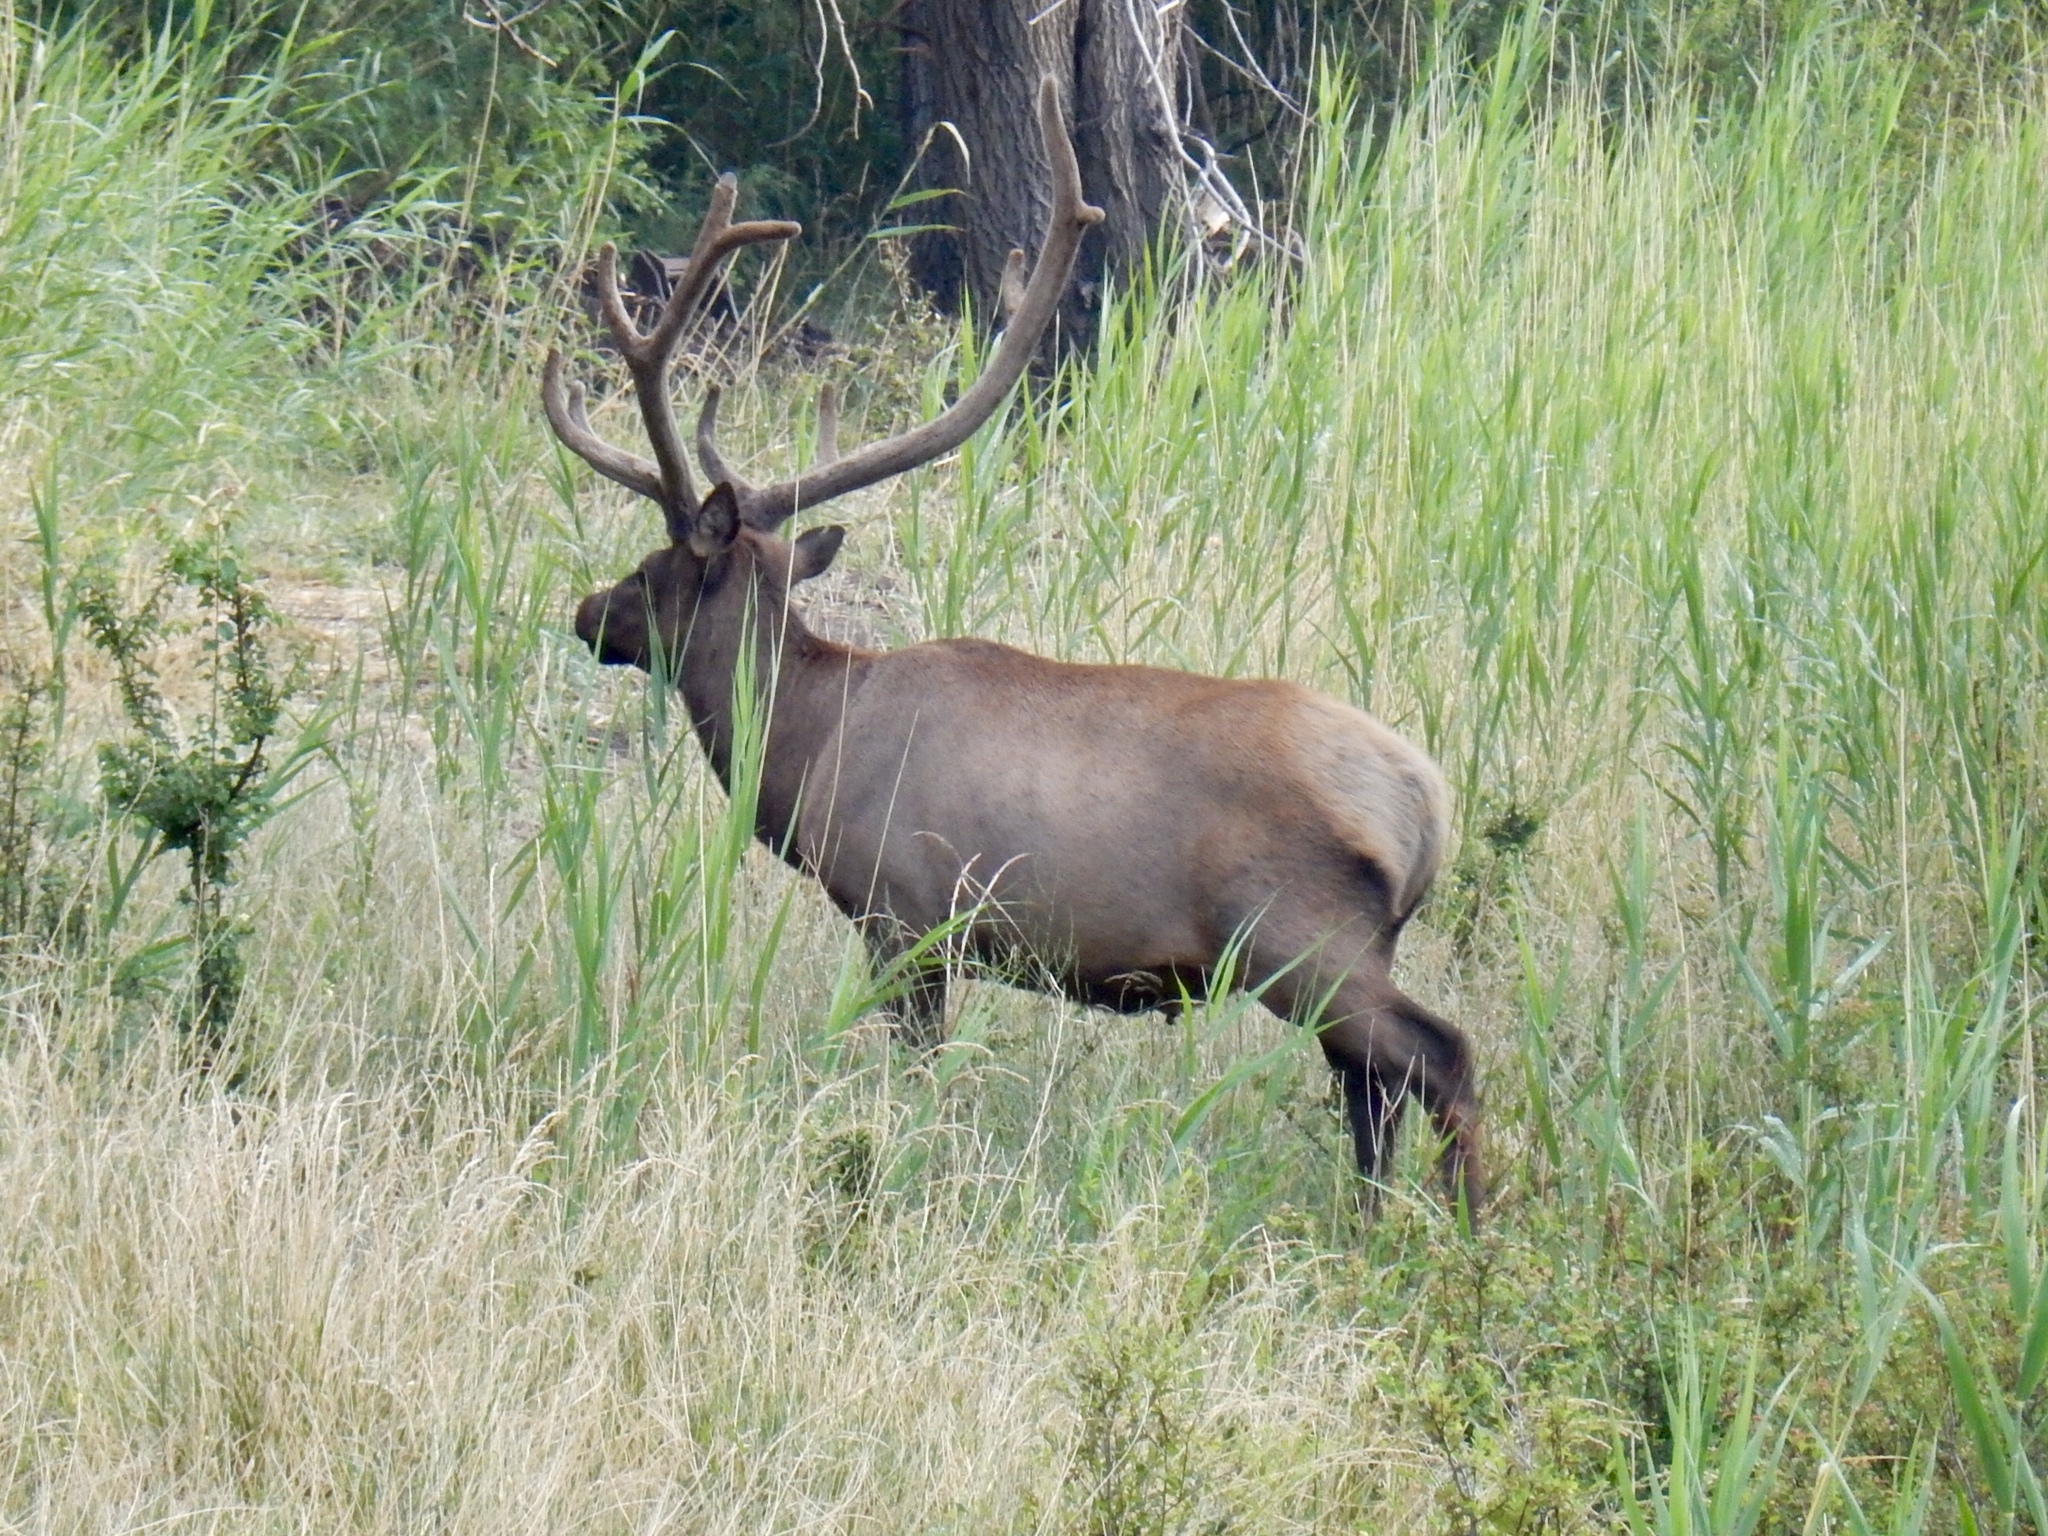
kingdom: Animalia
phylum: Chordata
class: Mammalia
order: Artiodactyla
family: Cervidae
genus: Cervus
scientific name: Cervus elaphus
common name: Red deer
